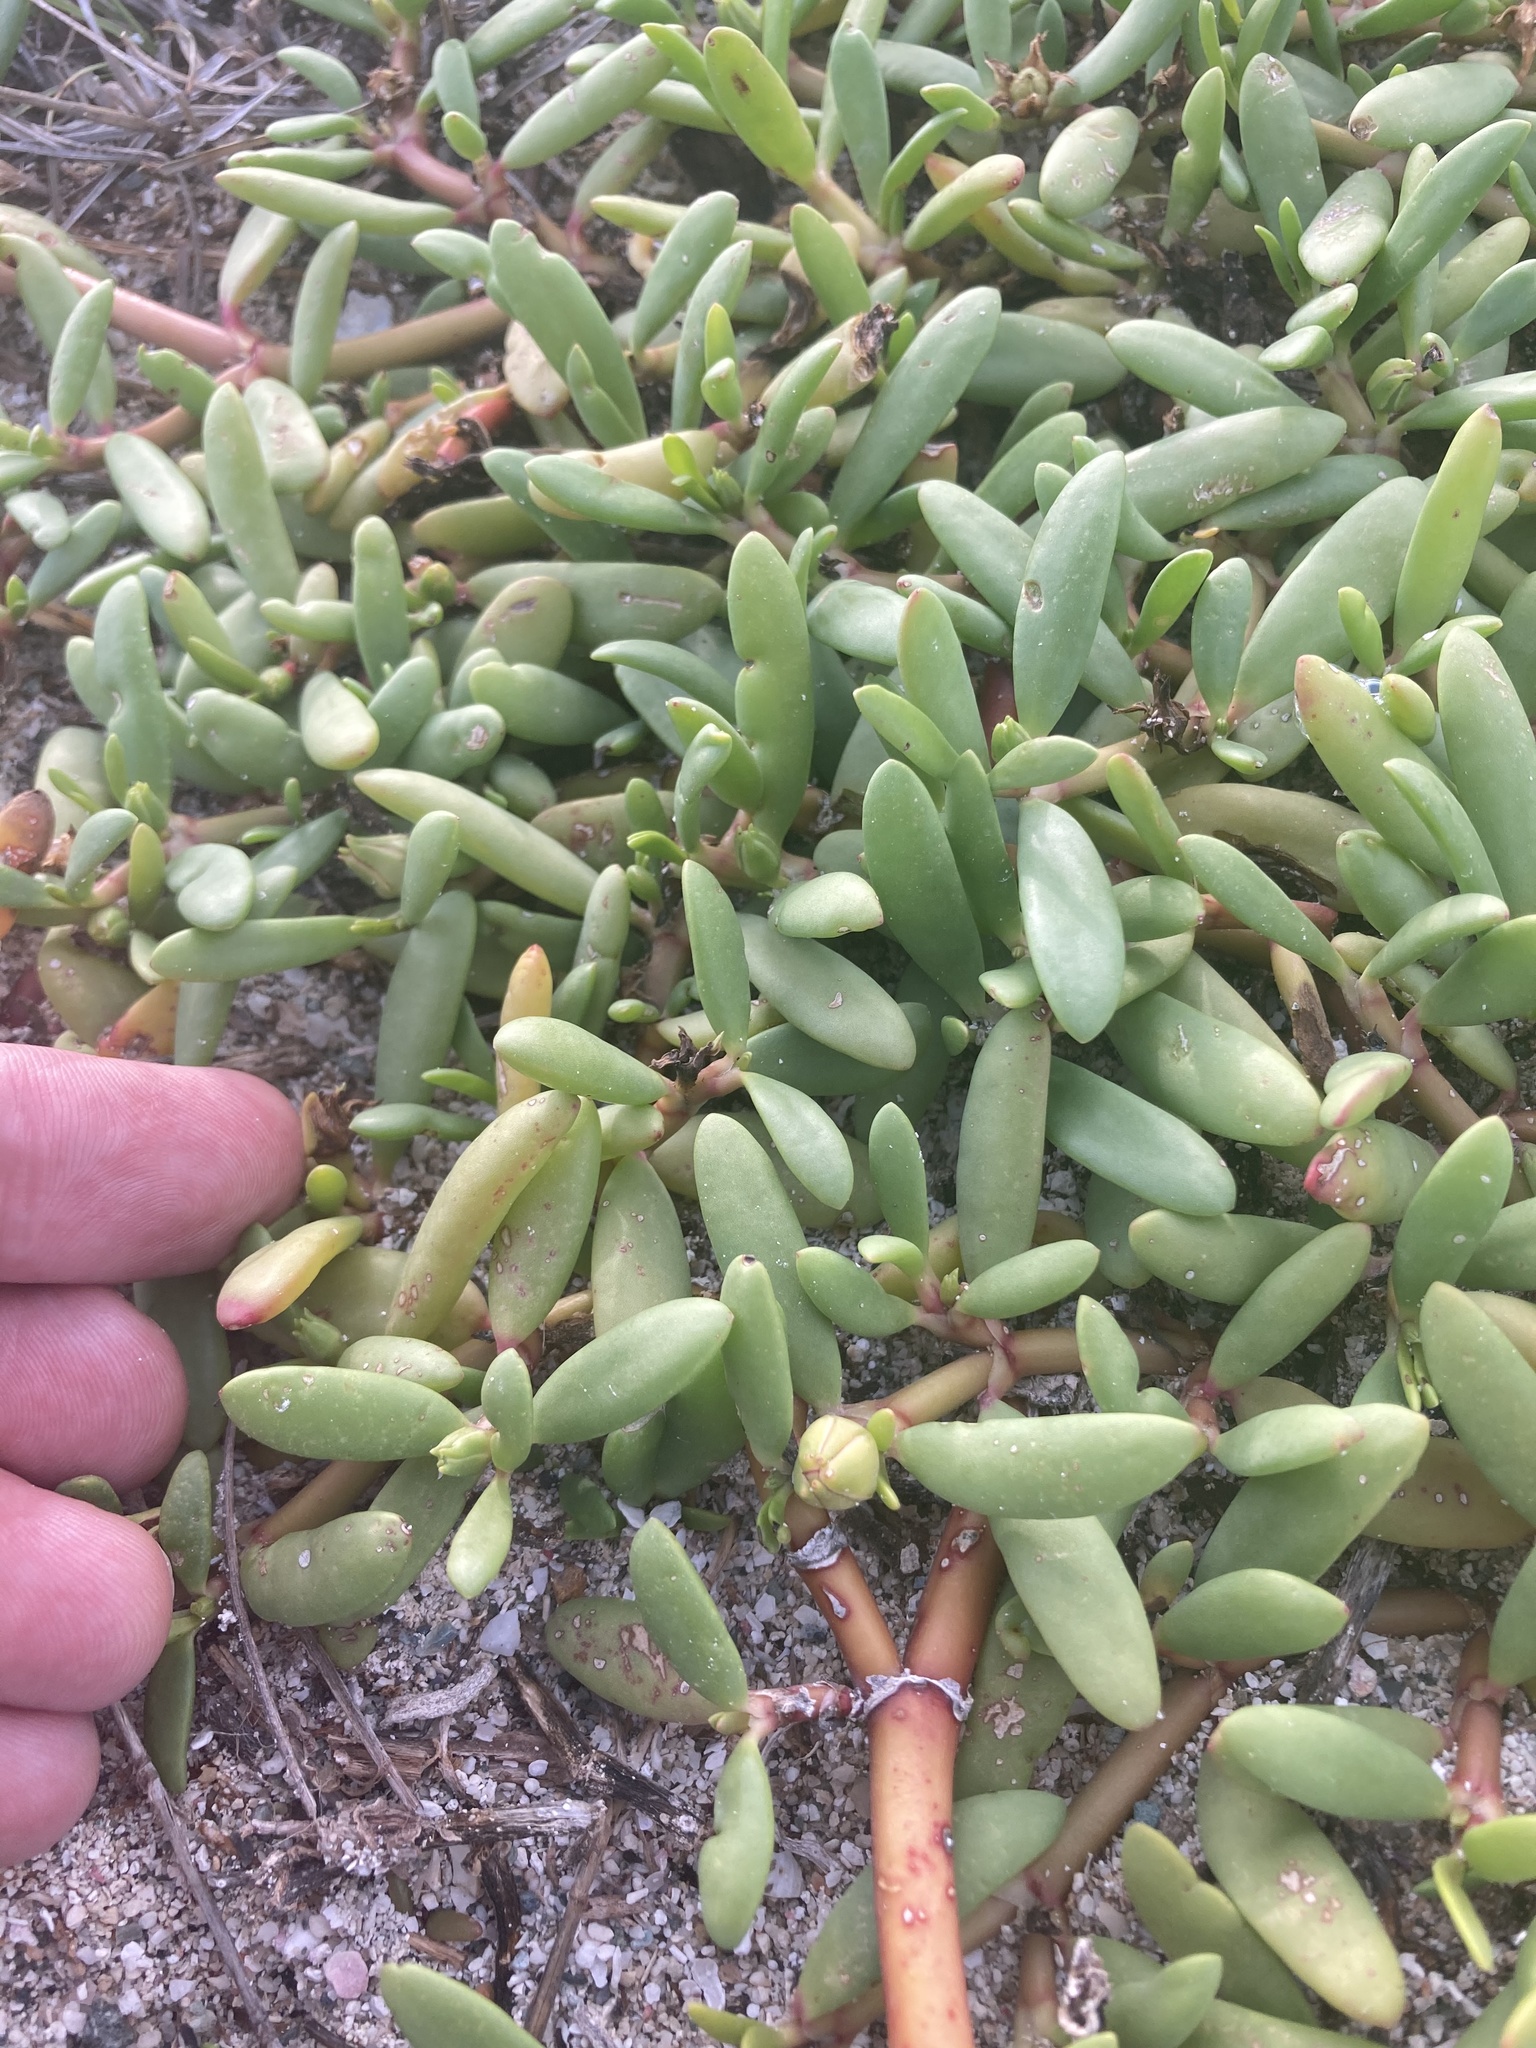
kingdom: Plantae
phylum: Tracheophyta
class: Magnoliopsida
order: Caryophyllales
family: Aizoaceae
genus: Sesuvium
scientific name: Sesuvium portulacastrum
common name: Sea-purslane
